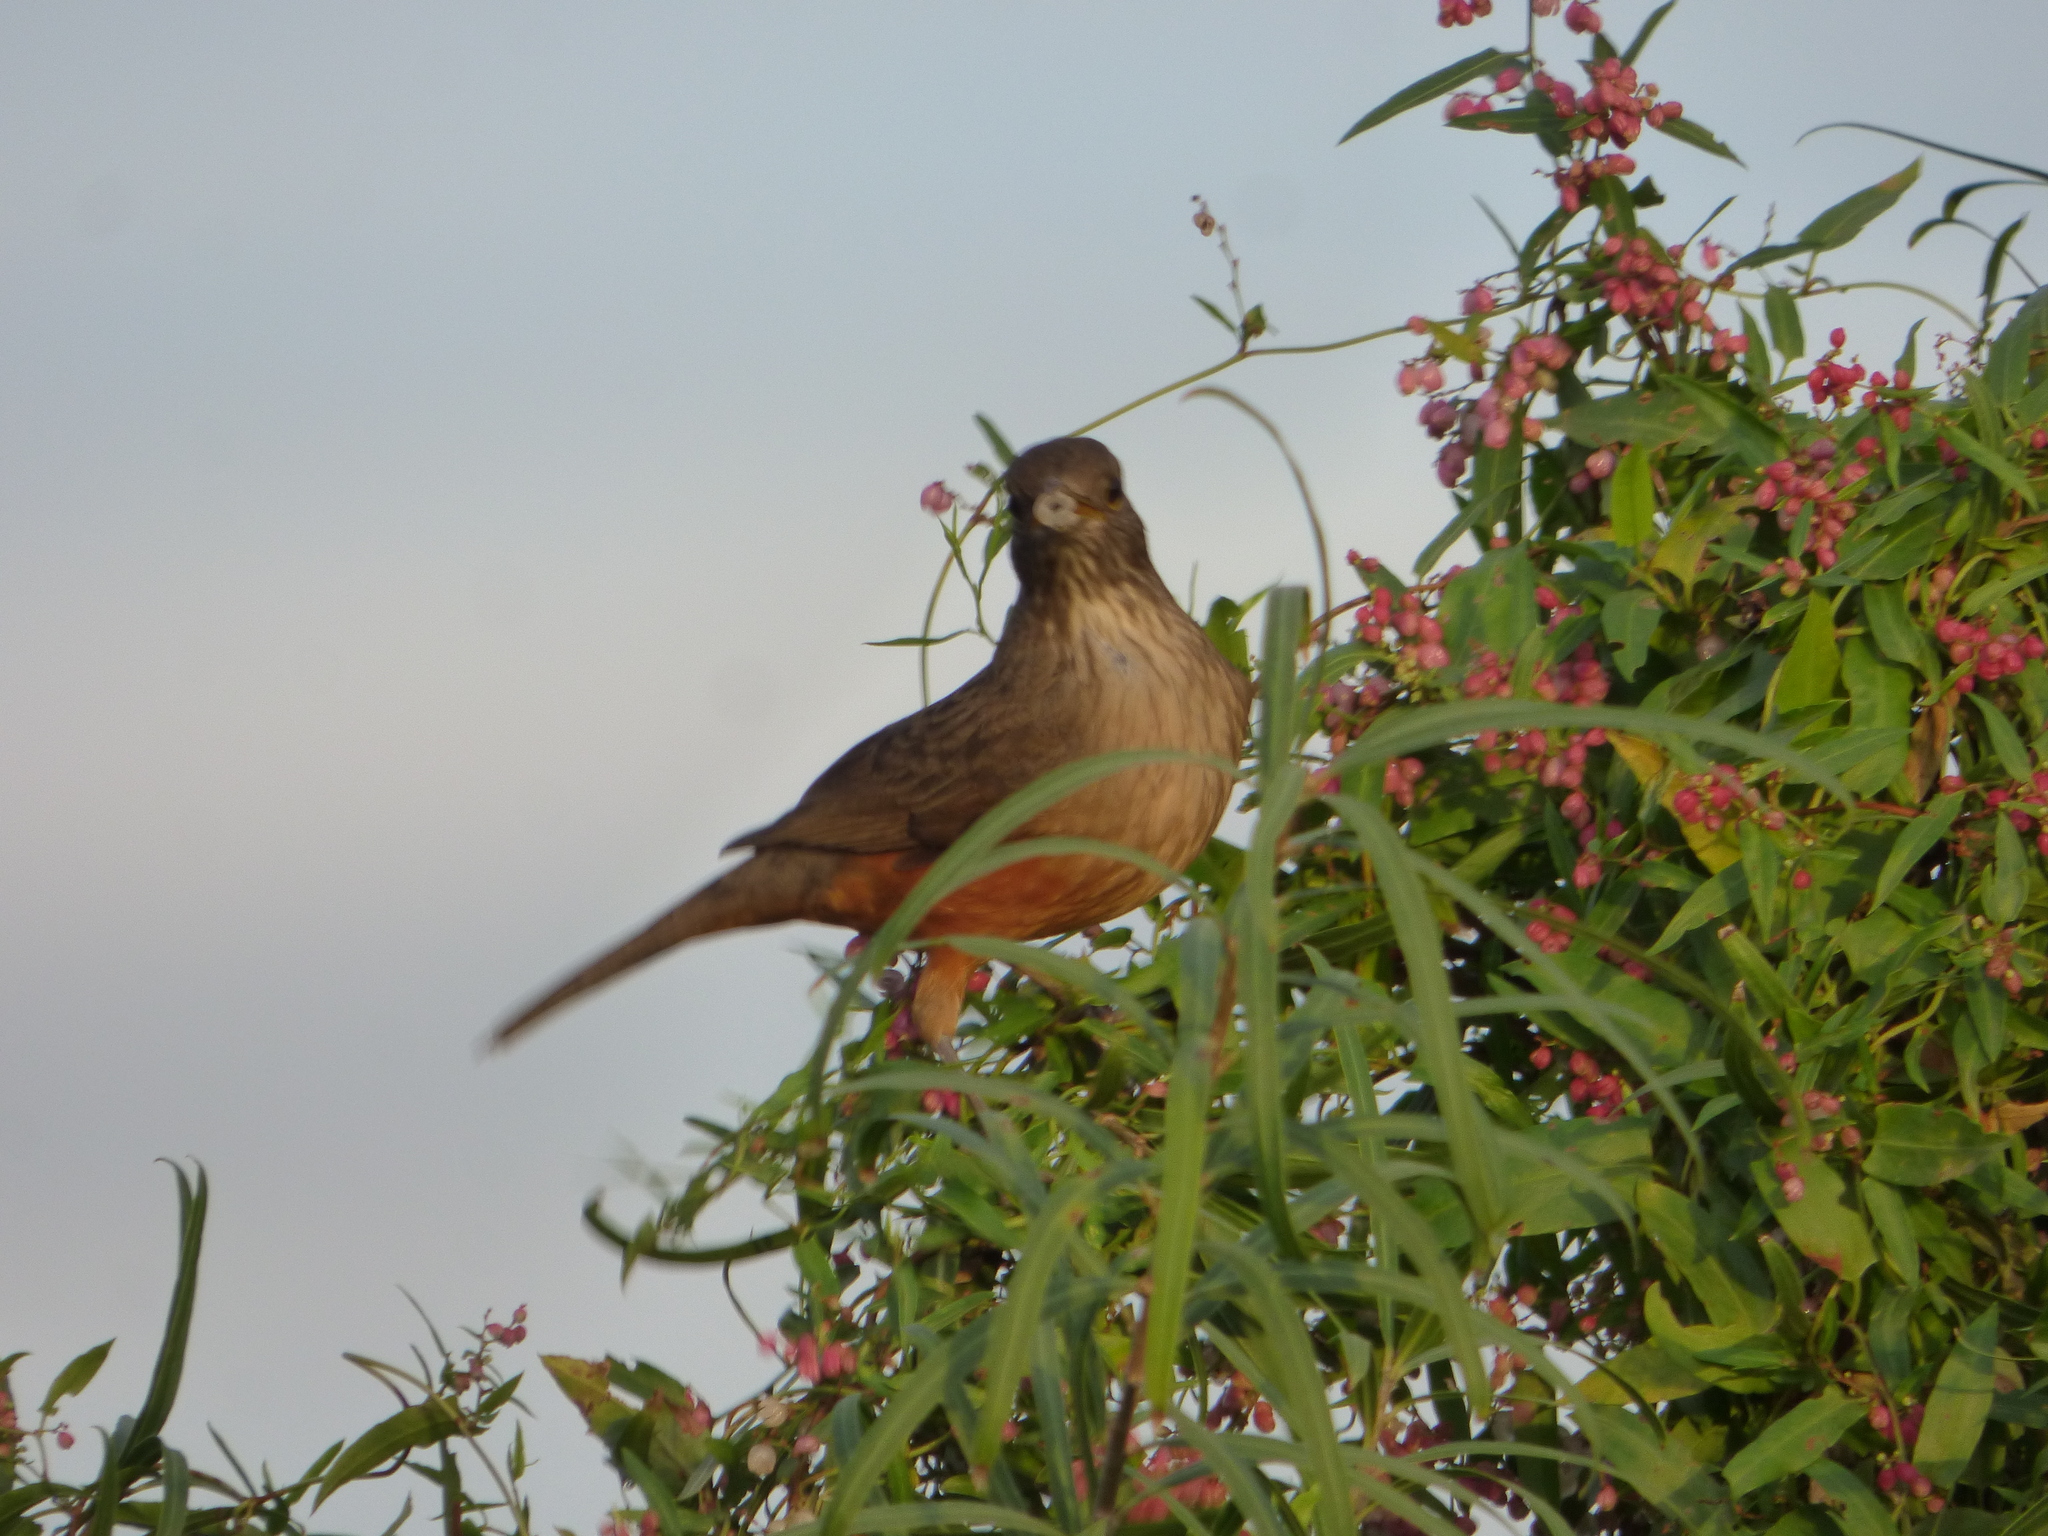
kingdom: Animalia
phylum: Chordata
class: Aves
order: Passeriformes
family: Turdidae
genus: Turdus
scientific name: Turdus rufiventris
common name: Rufous-bellied thrush
